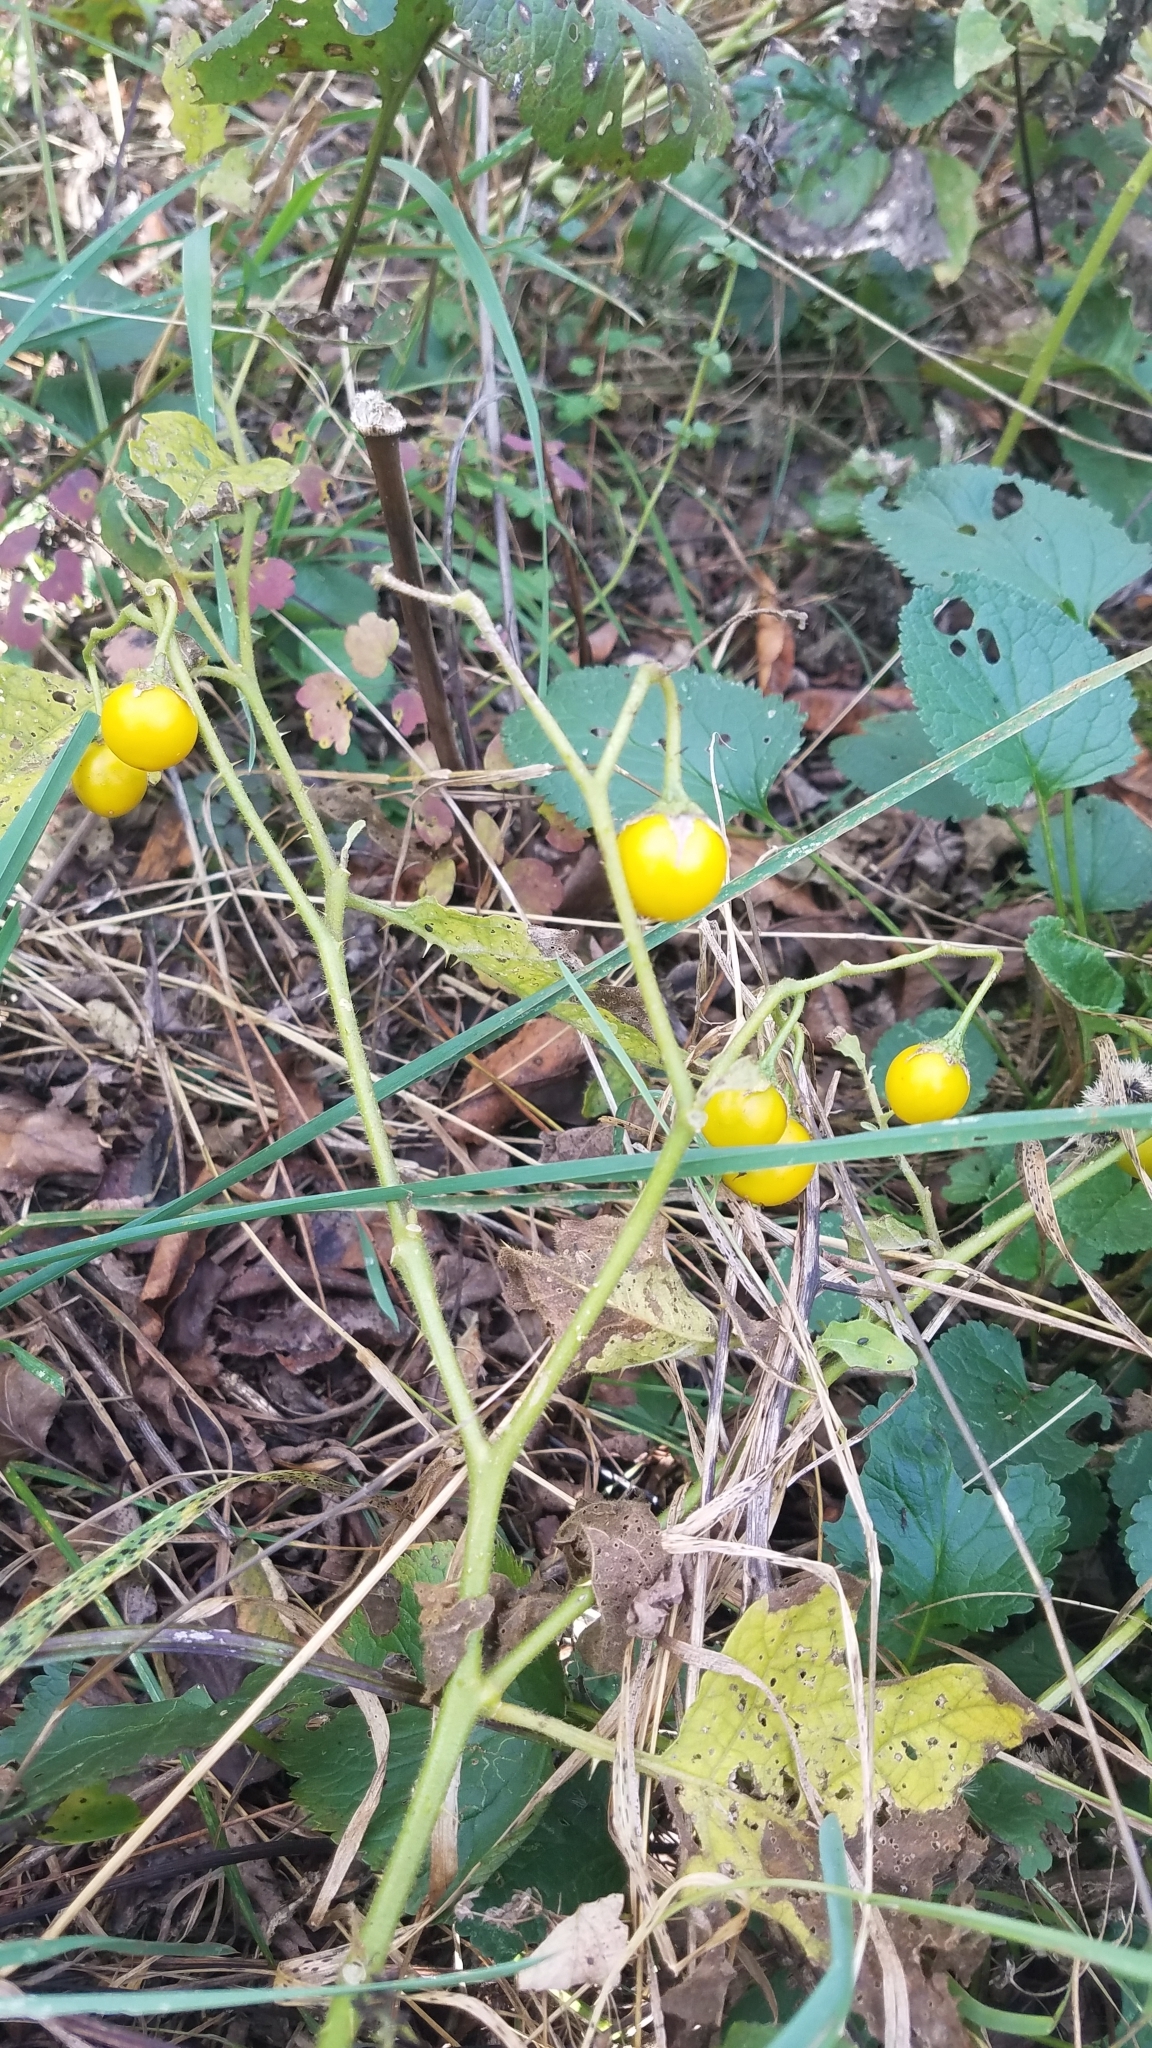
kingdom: Plantae
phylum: Tracheophyta
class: Magnoliopsida
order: Solanales
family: Solanaceae
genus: Solanum
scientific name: Solanum carolinense
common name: Horse-nettle
